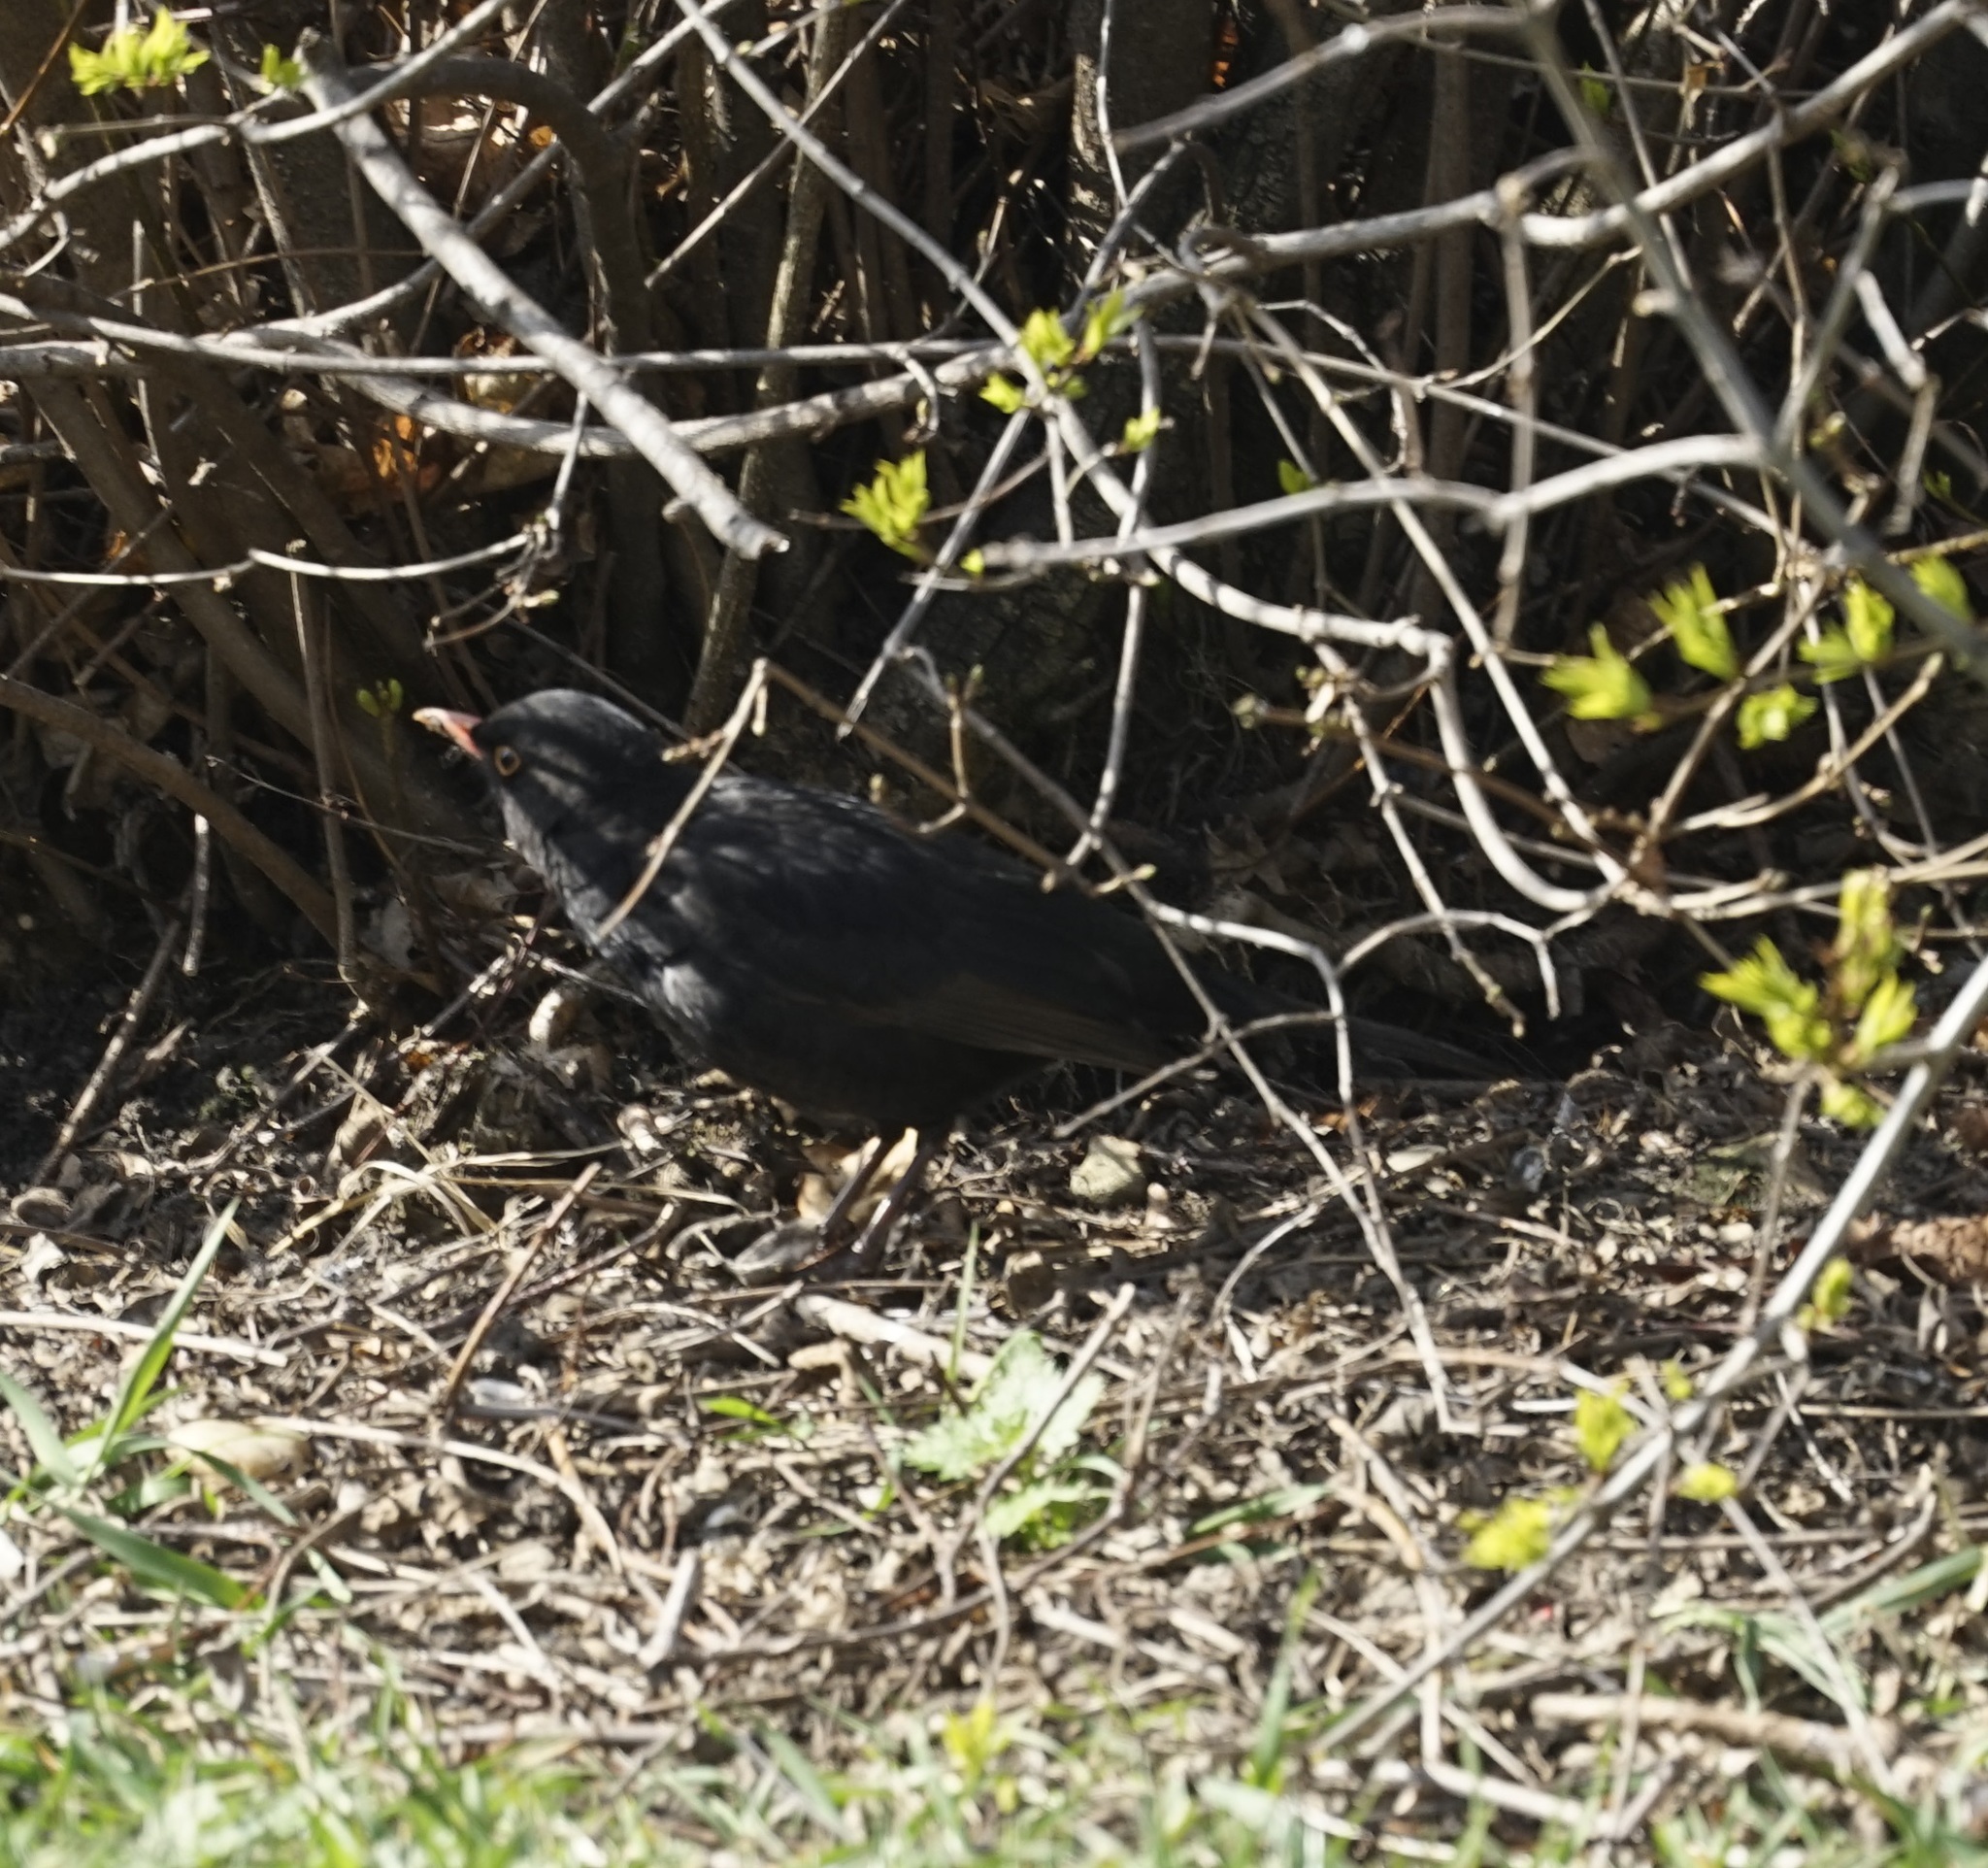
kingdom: Animalia
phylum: Chordata
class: Aves
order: Passeriformes
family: Turdidae
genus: Turdus
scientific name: Turdus merula
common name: Common blackbird
